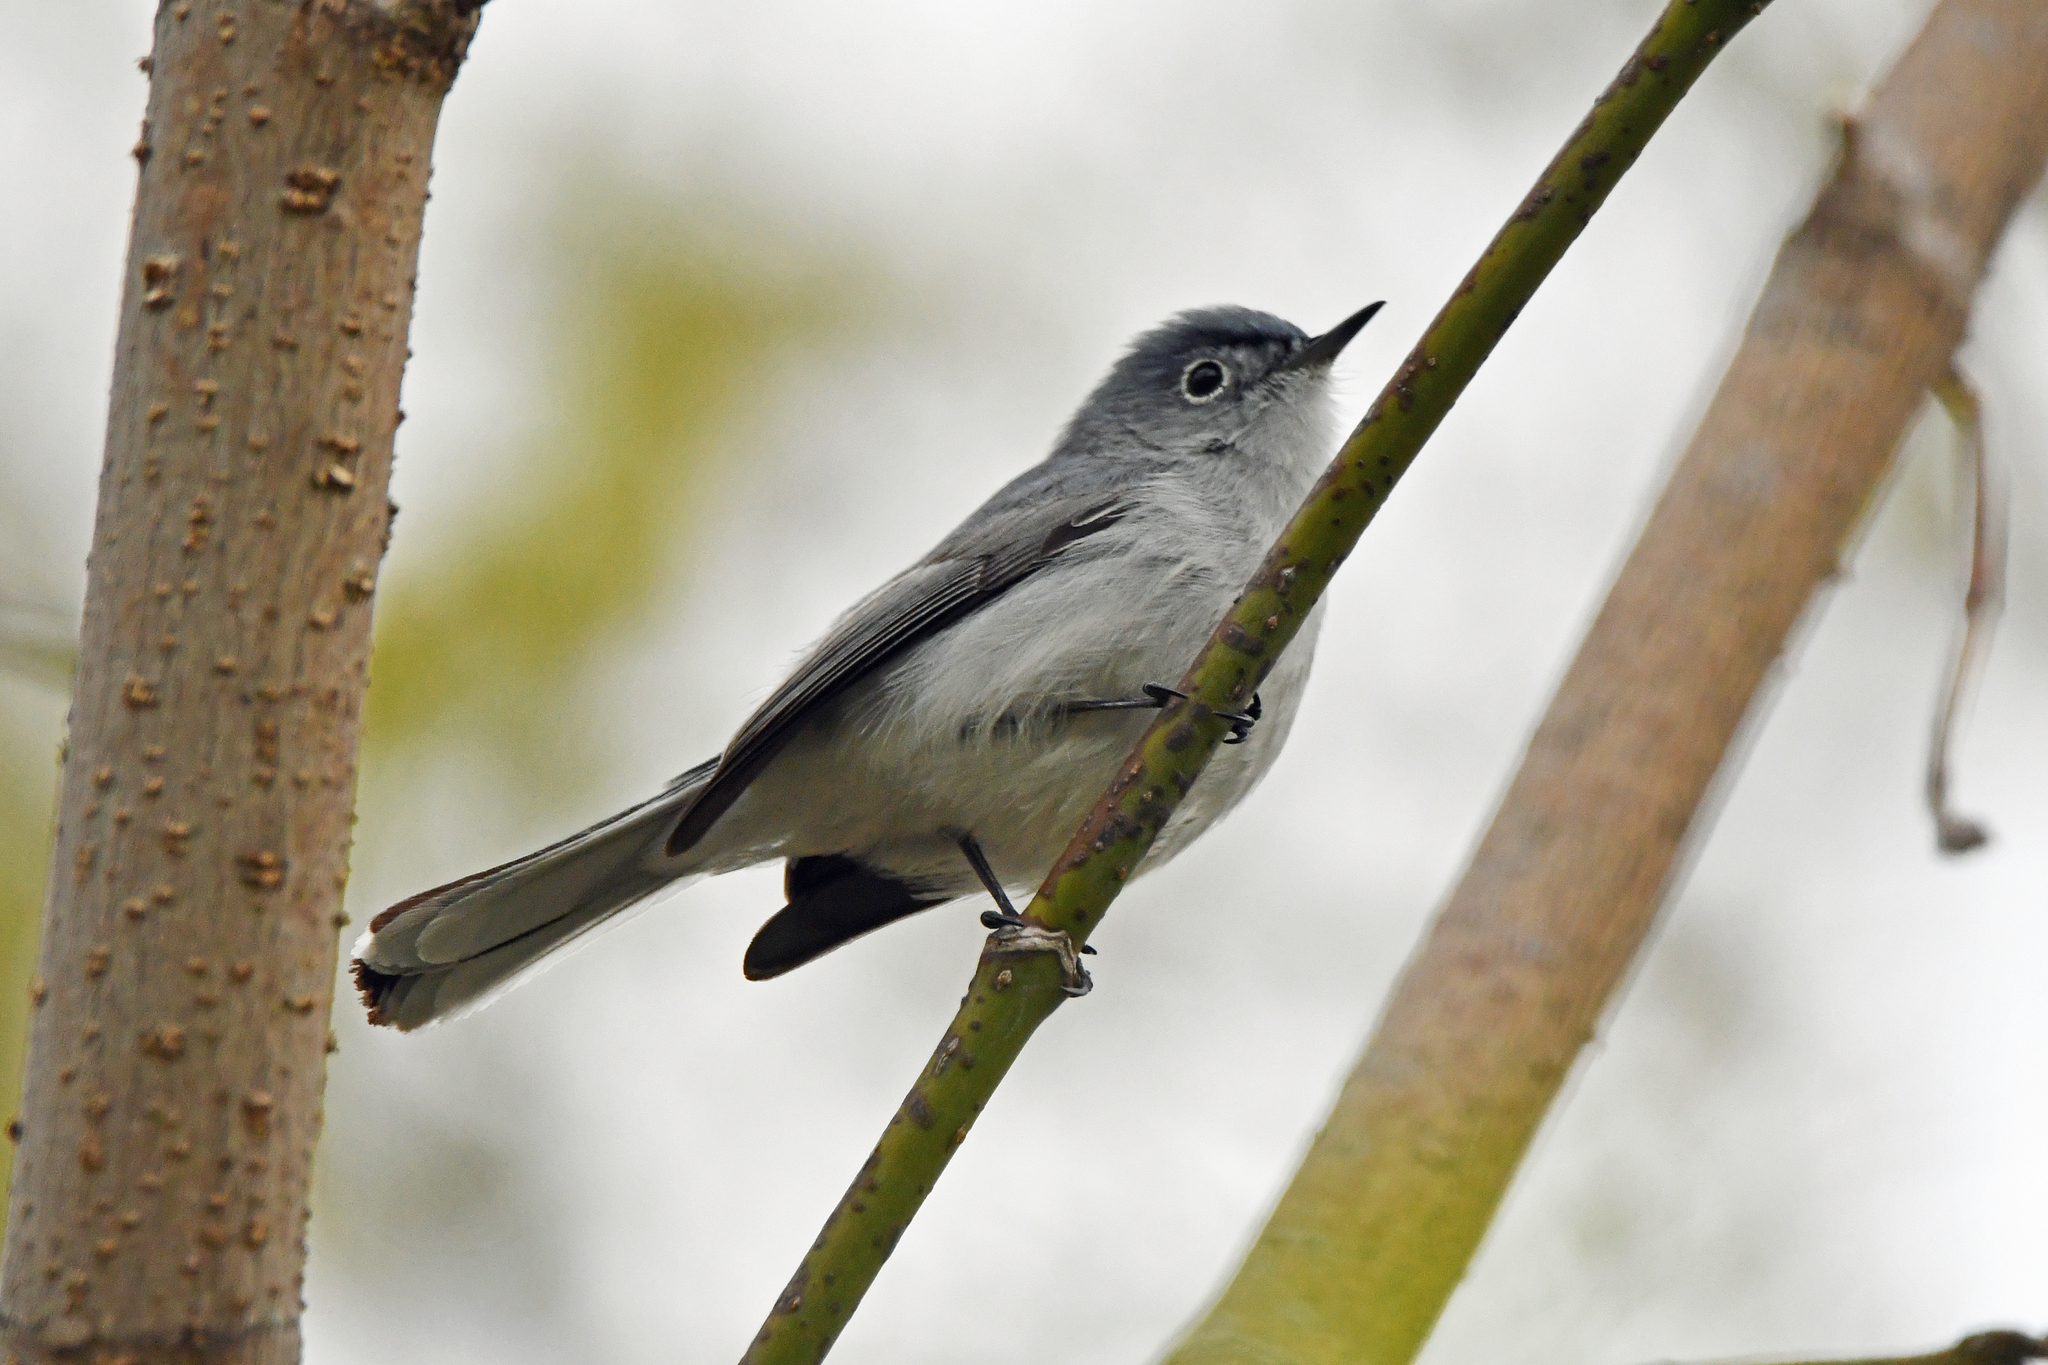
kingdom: Animalia
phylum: Chordata
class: Aves
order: Passeriformes
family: Polioptilidae
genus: Polioptila
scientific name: Polioptila caerulea
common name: Blue-gray gnatcatcher
